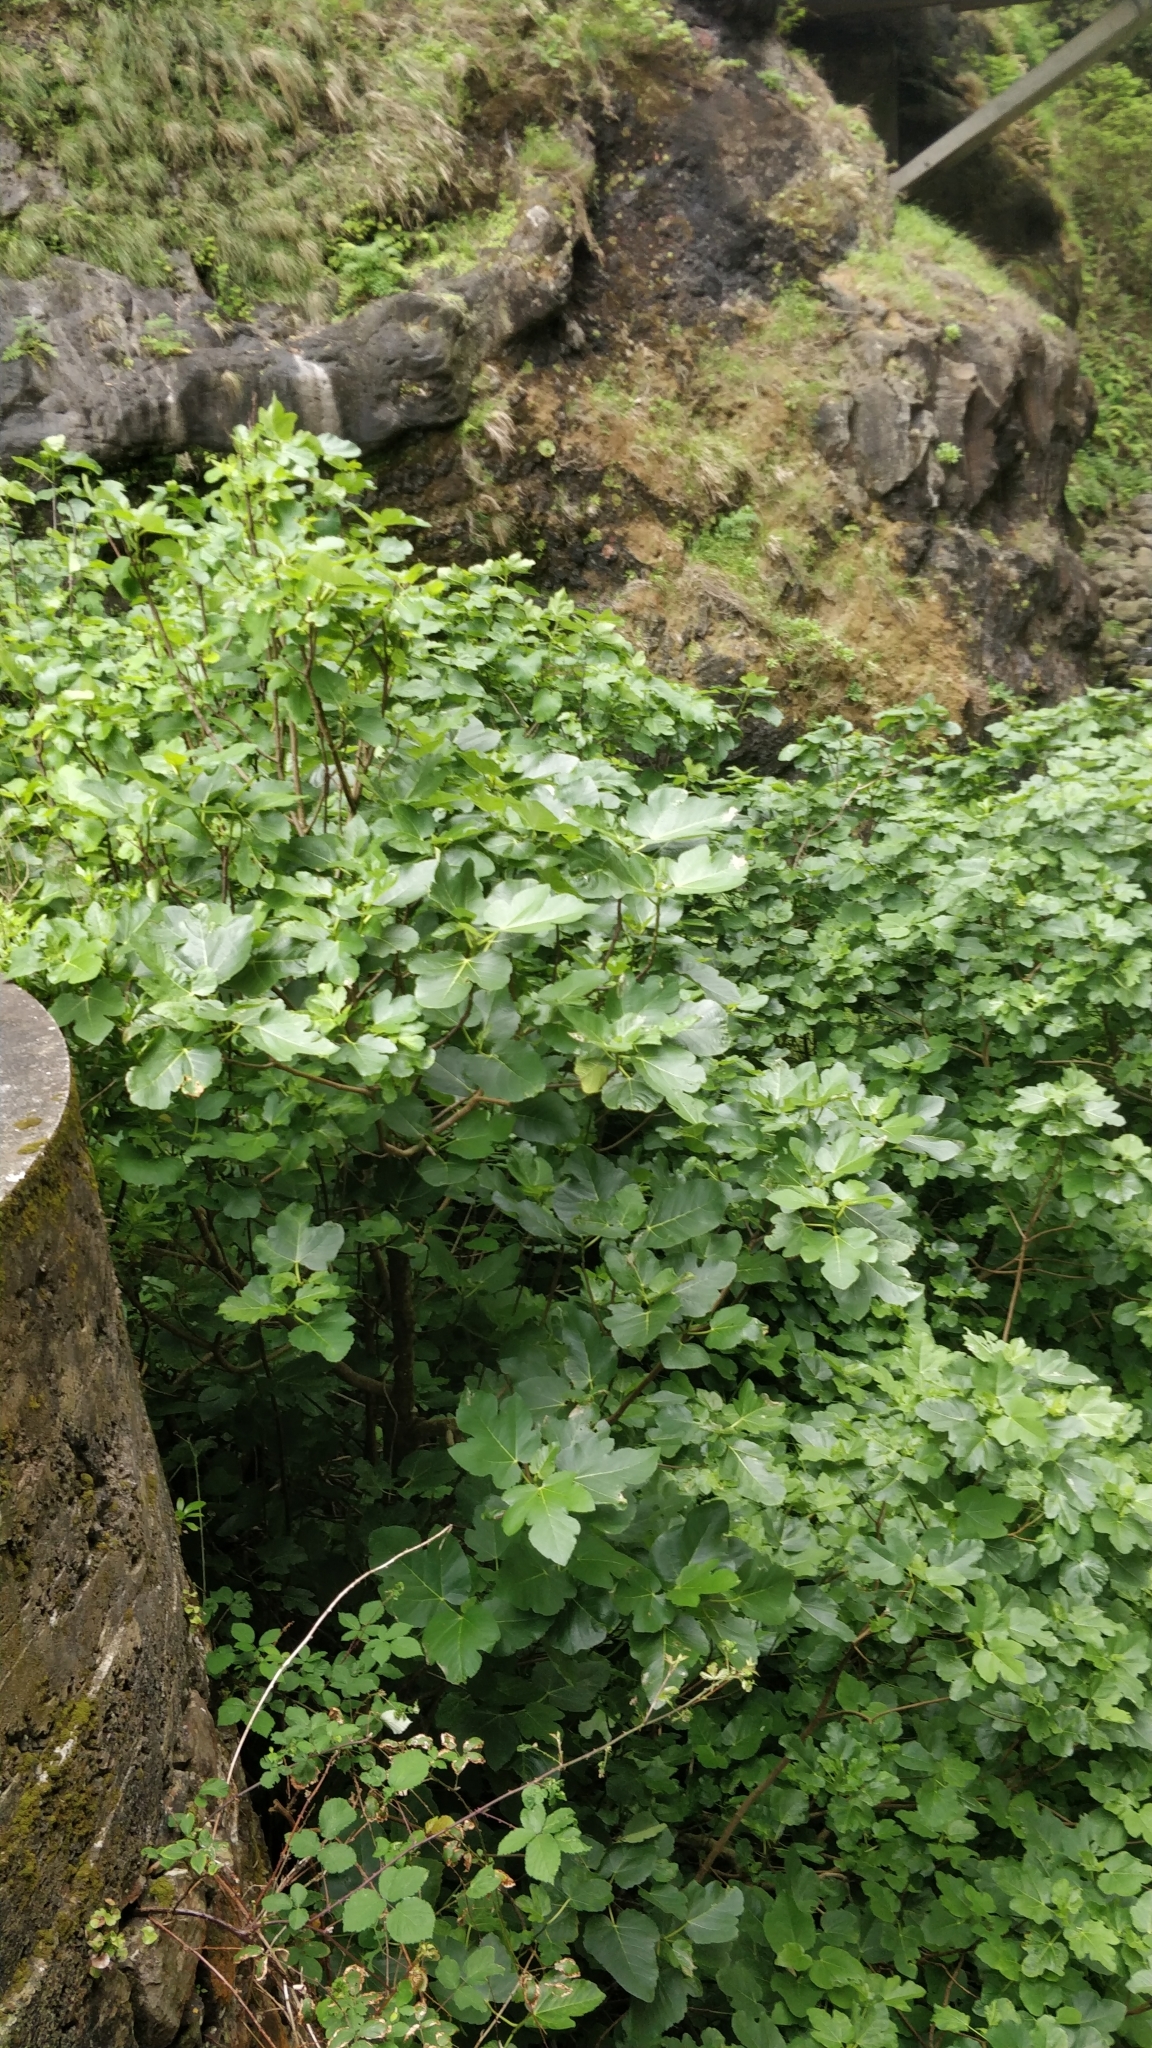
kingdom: Plantae
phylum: Tracheophyta
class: Magnoliopsida
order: Rosales
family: Moraceae
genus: Ficus
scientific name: Ficus carica
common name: Fig
